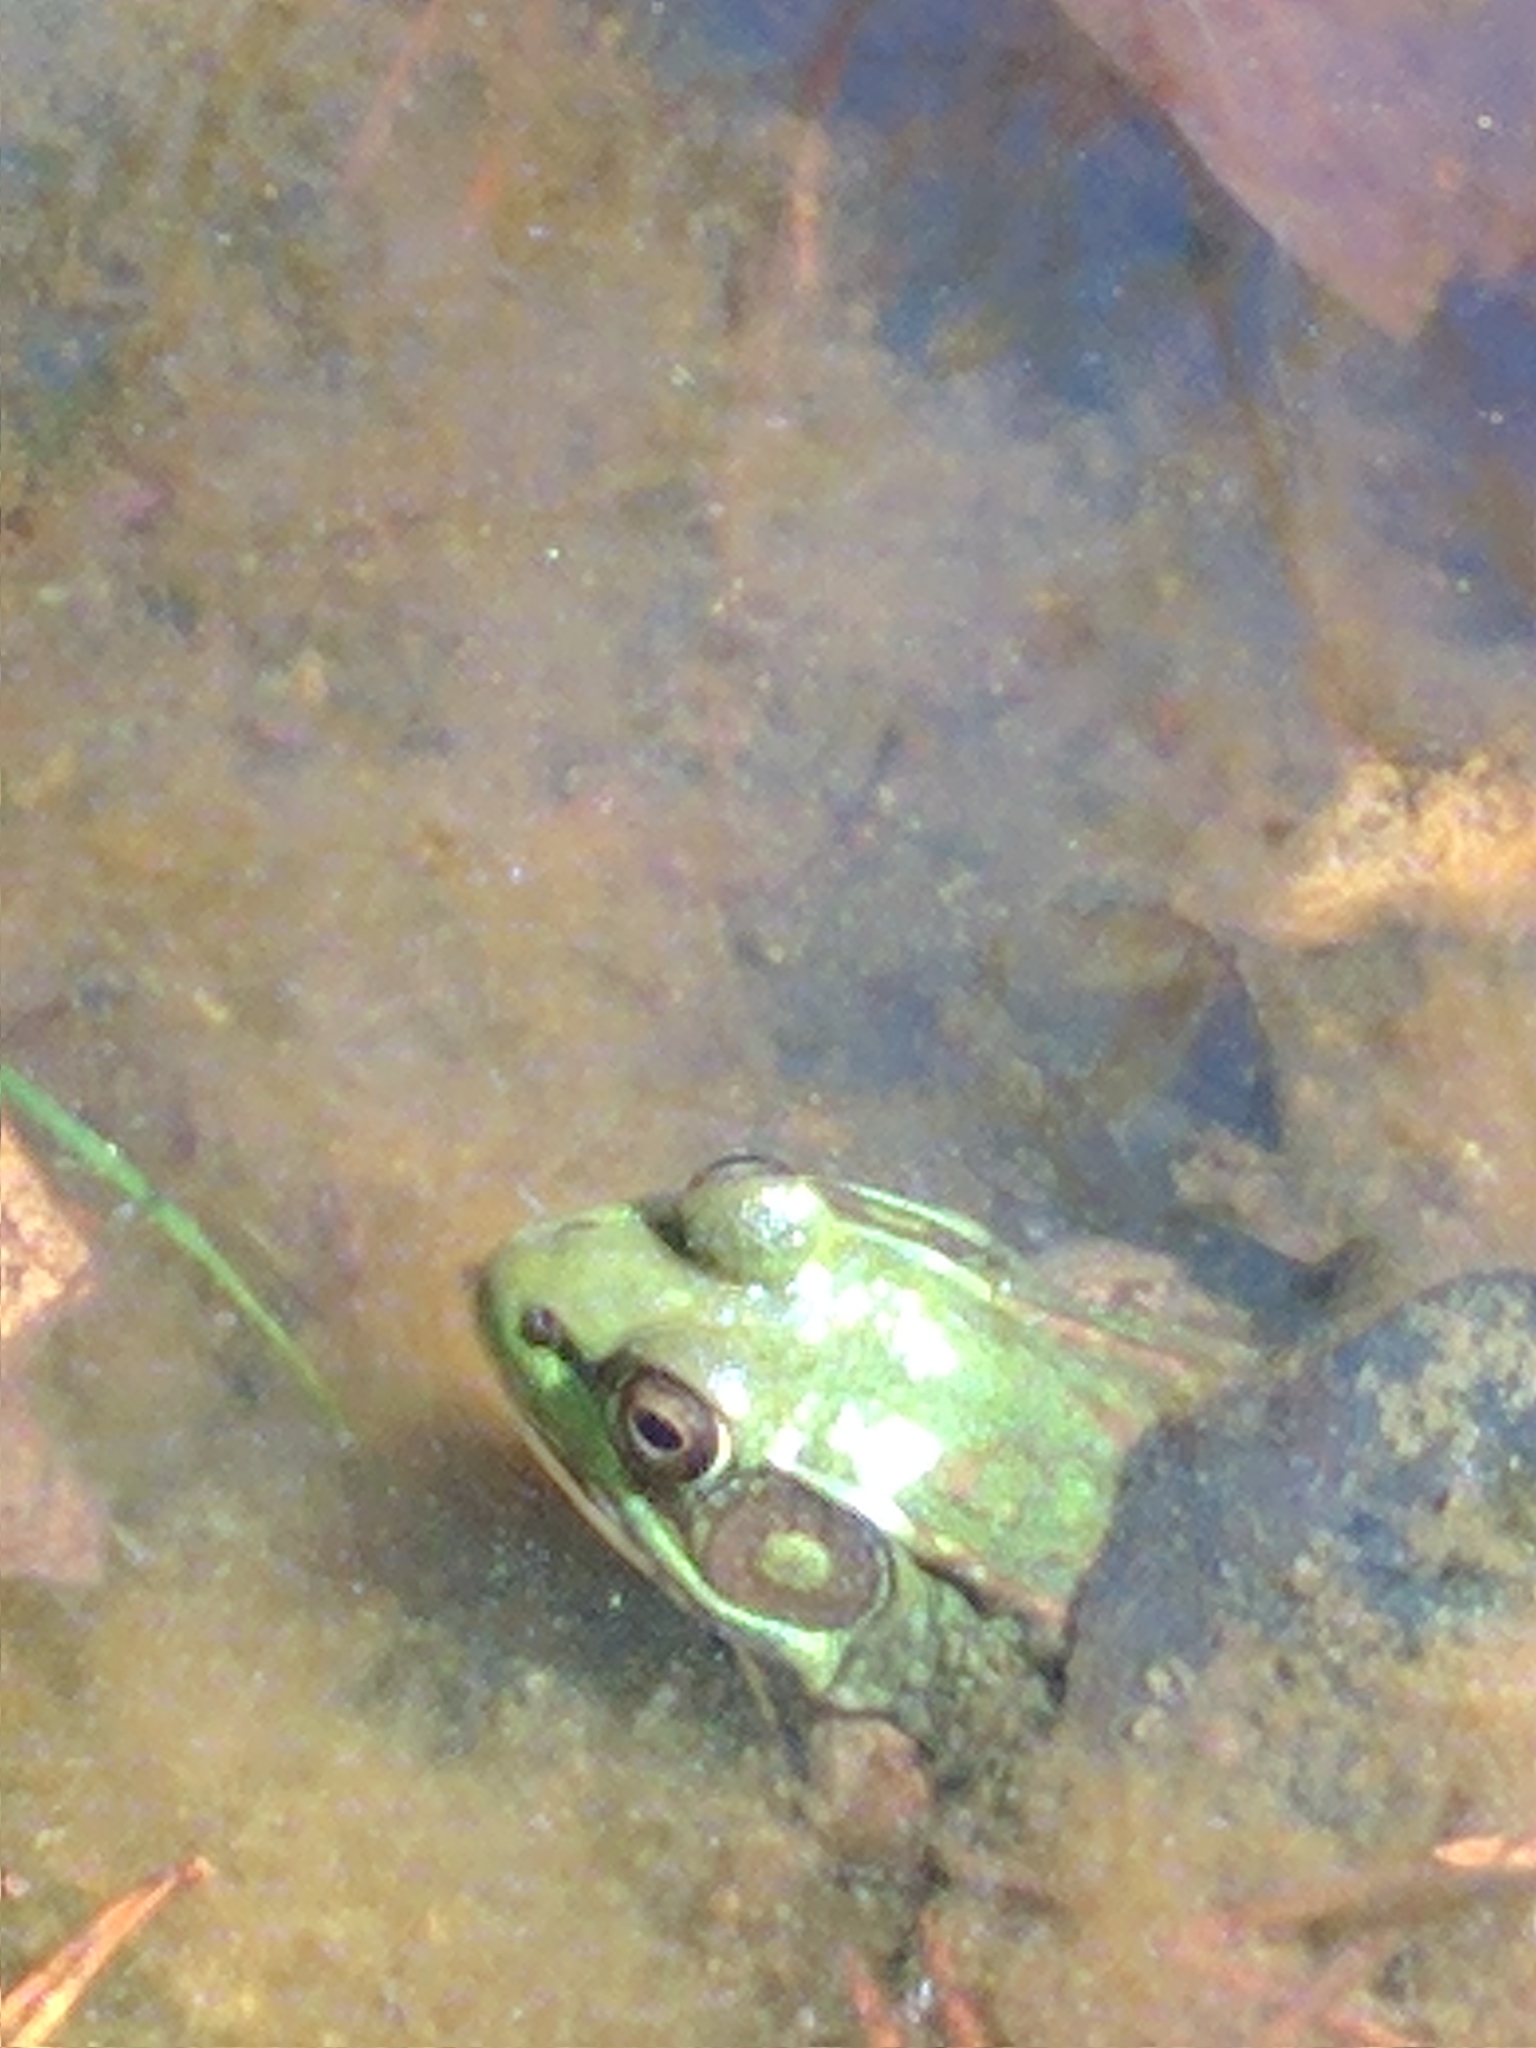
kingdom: Animalia
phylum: Chordata
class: Amphibia
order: Anura
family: Ranidae
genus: Lithobates
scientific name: Lithobates clamitans
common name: Green frog
